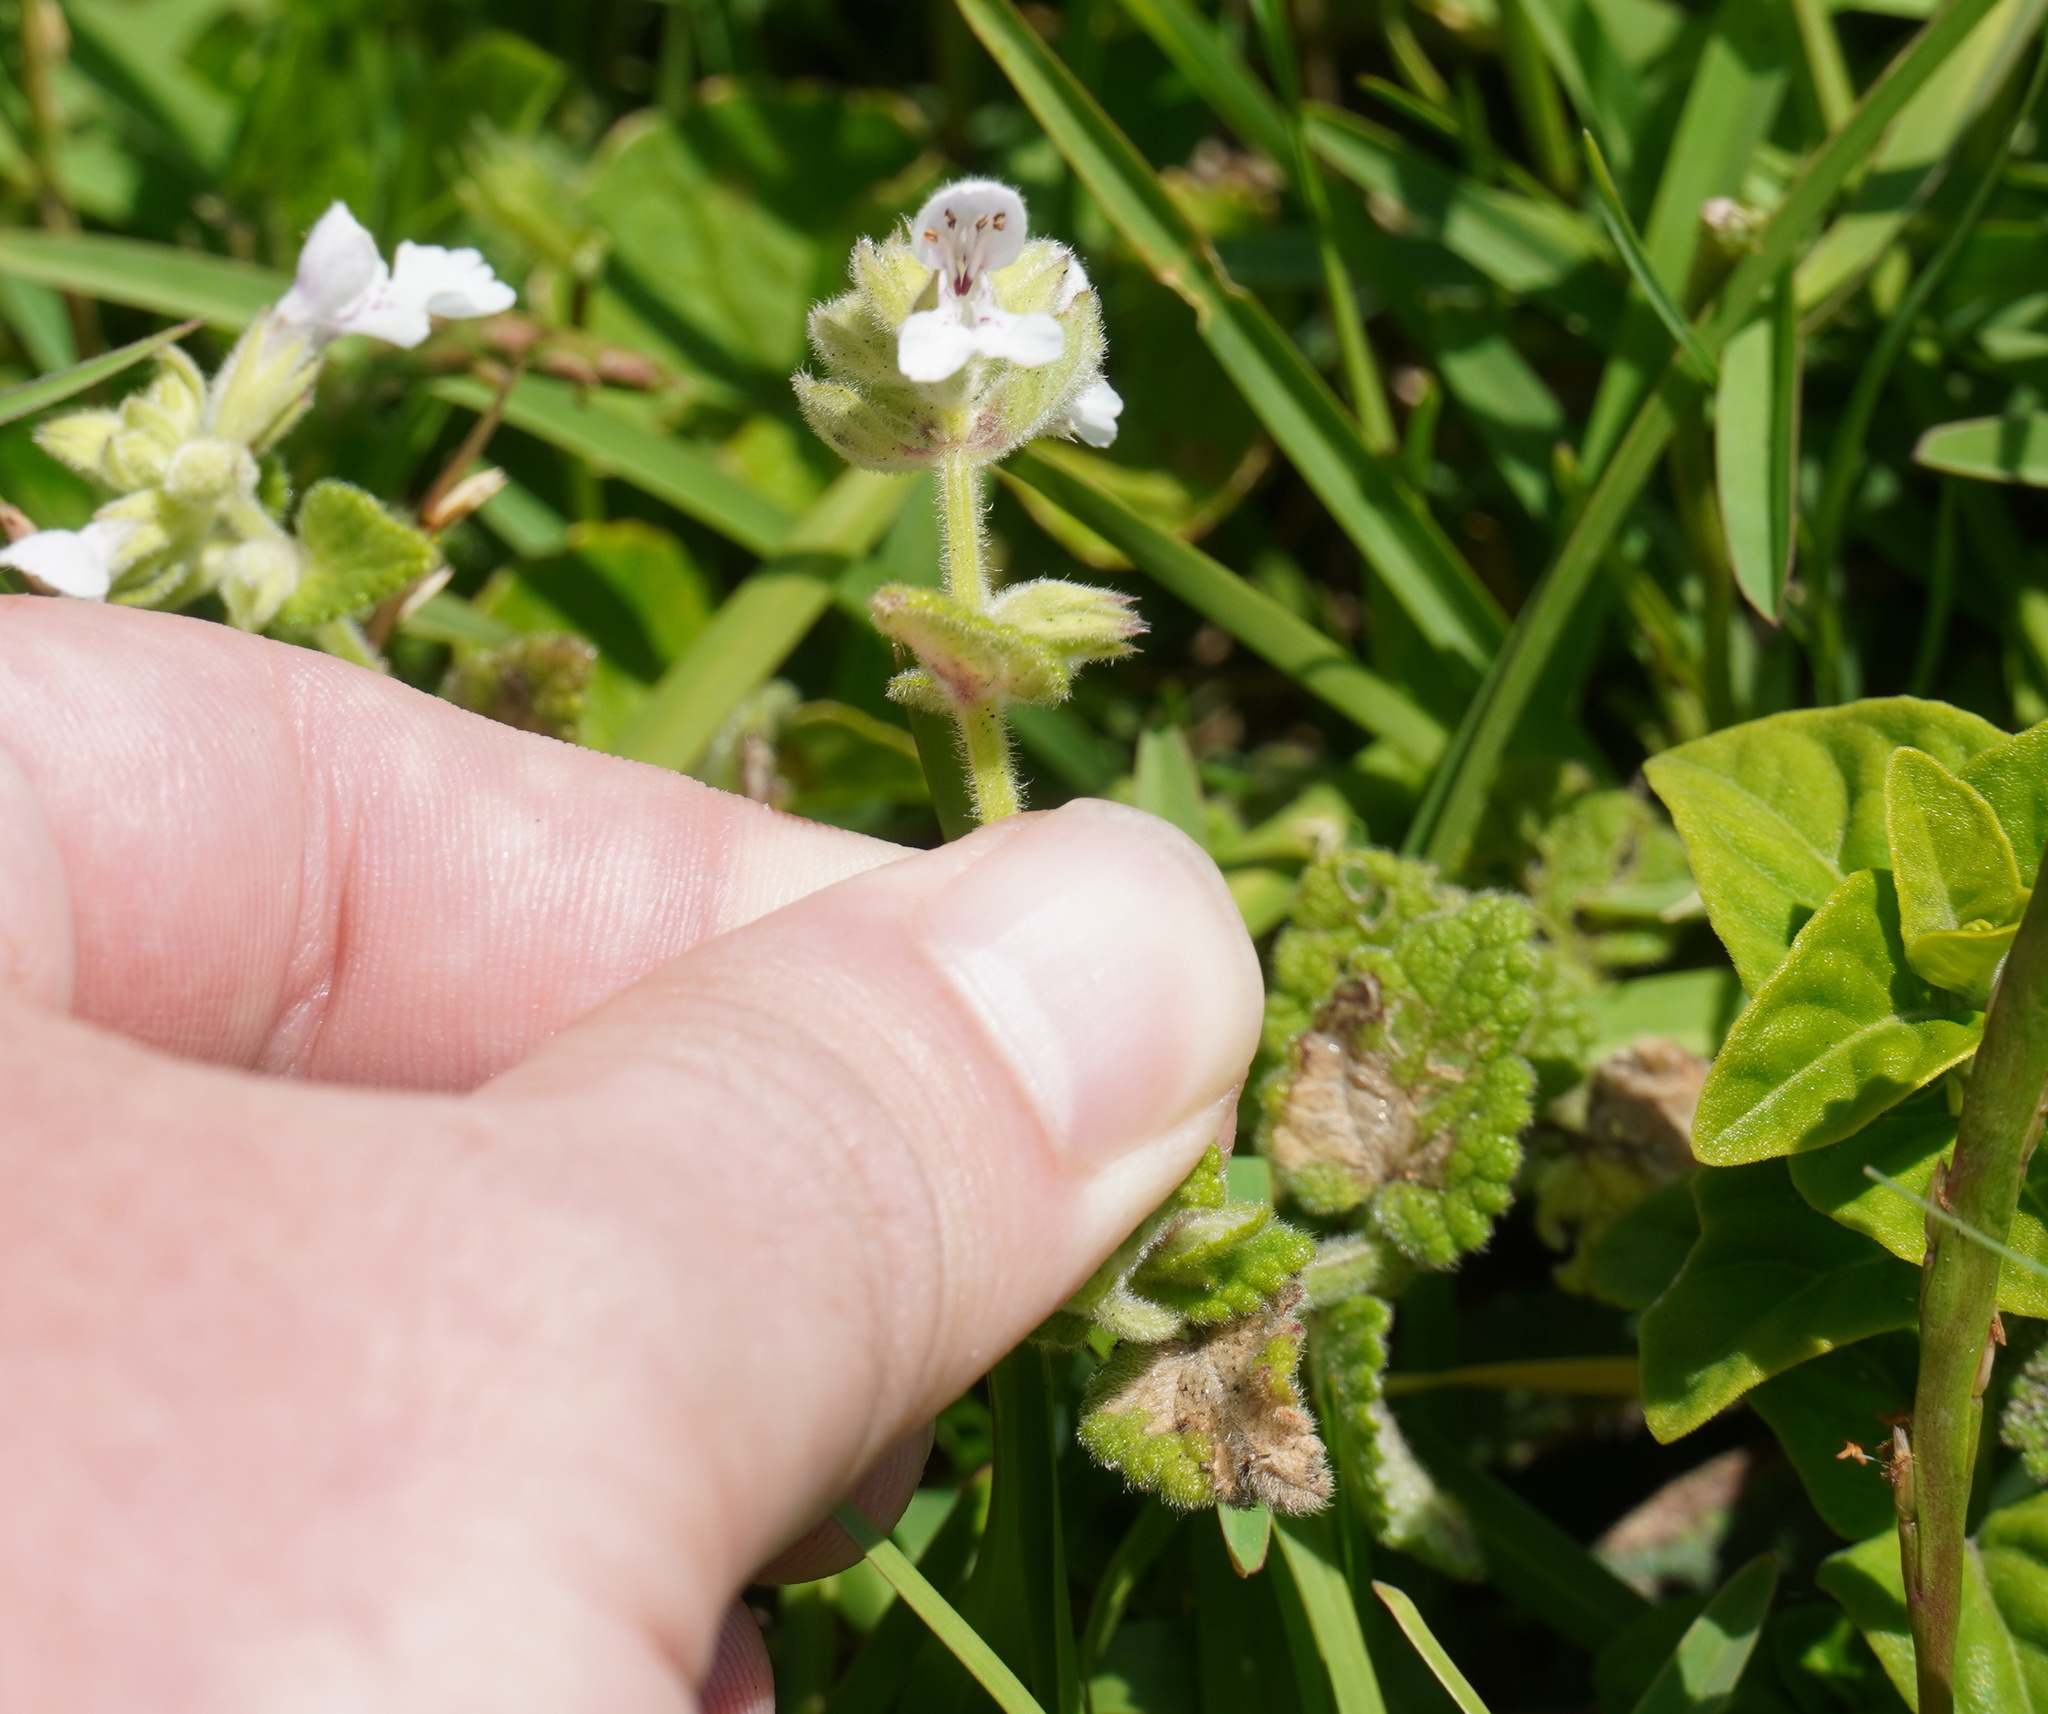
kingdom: Plantae
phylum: Tracheophyta
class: Magnoliopsida
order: Lamiales
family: Lamiaceae
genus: Stachys
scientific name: Stachys aethiopica
